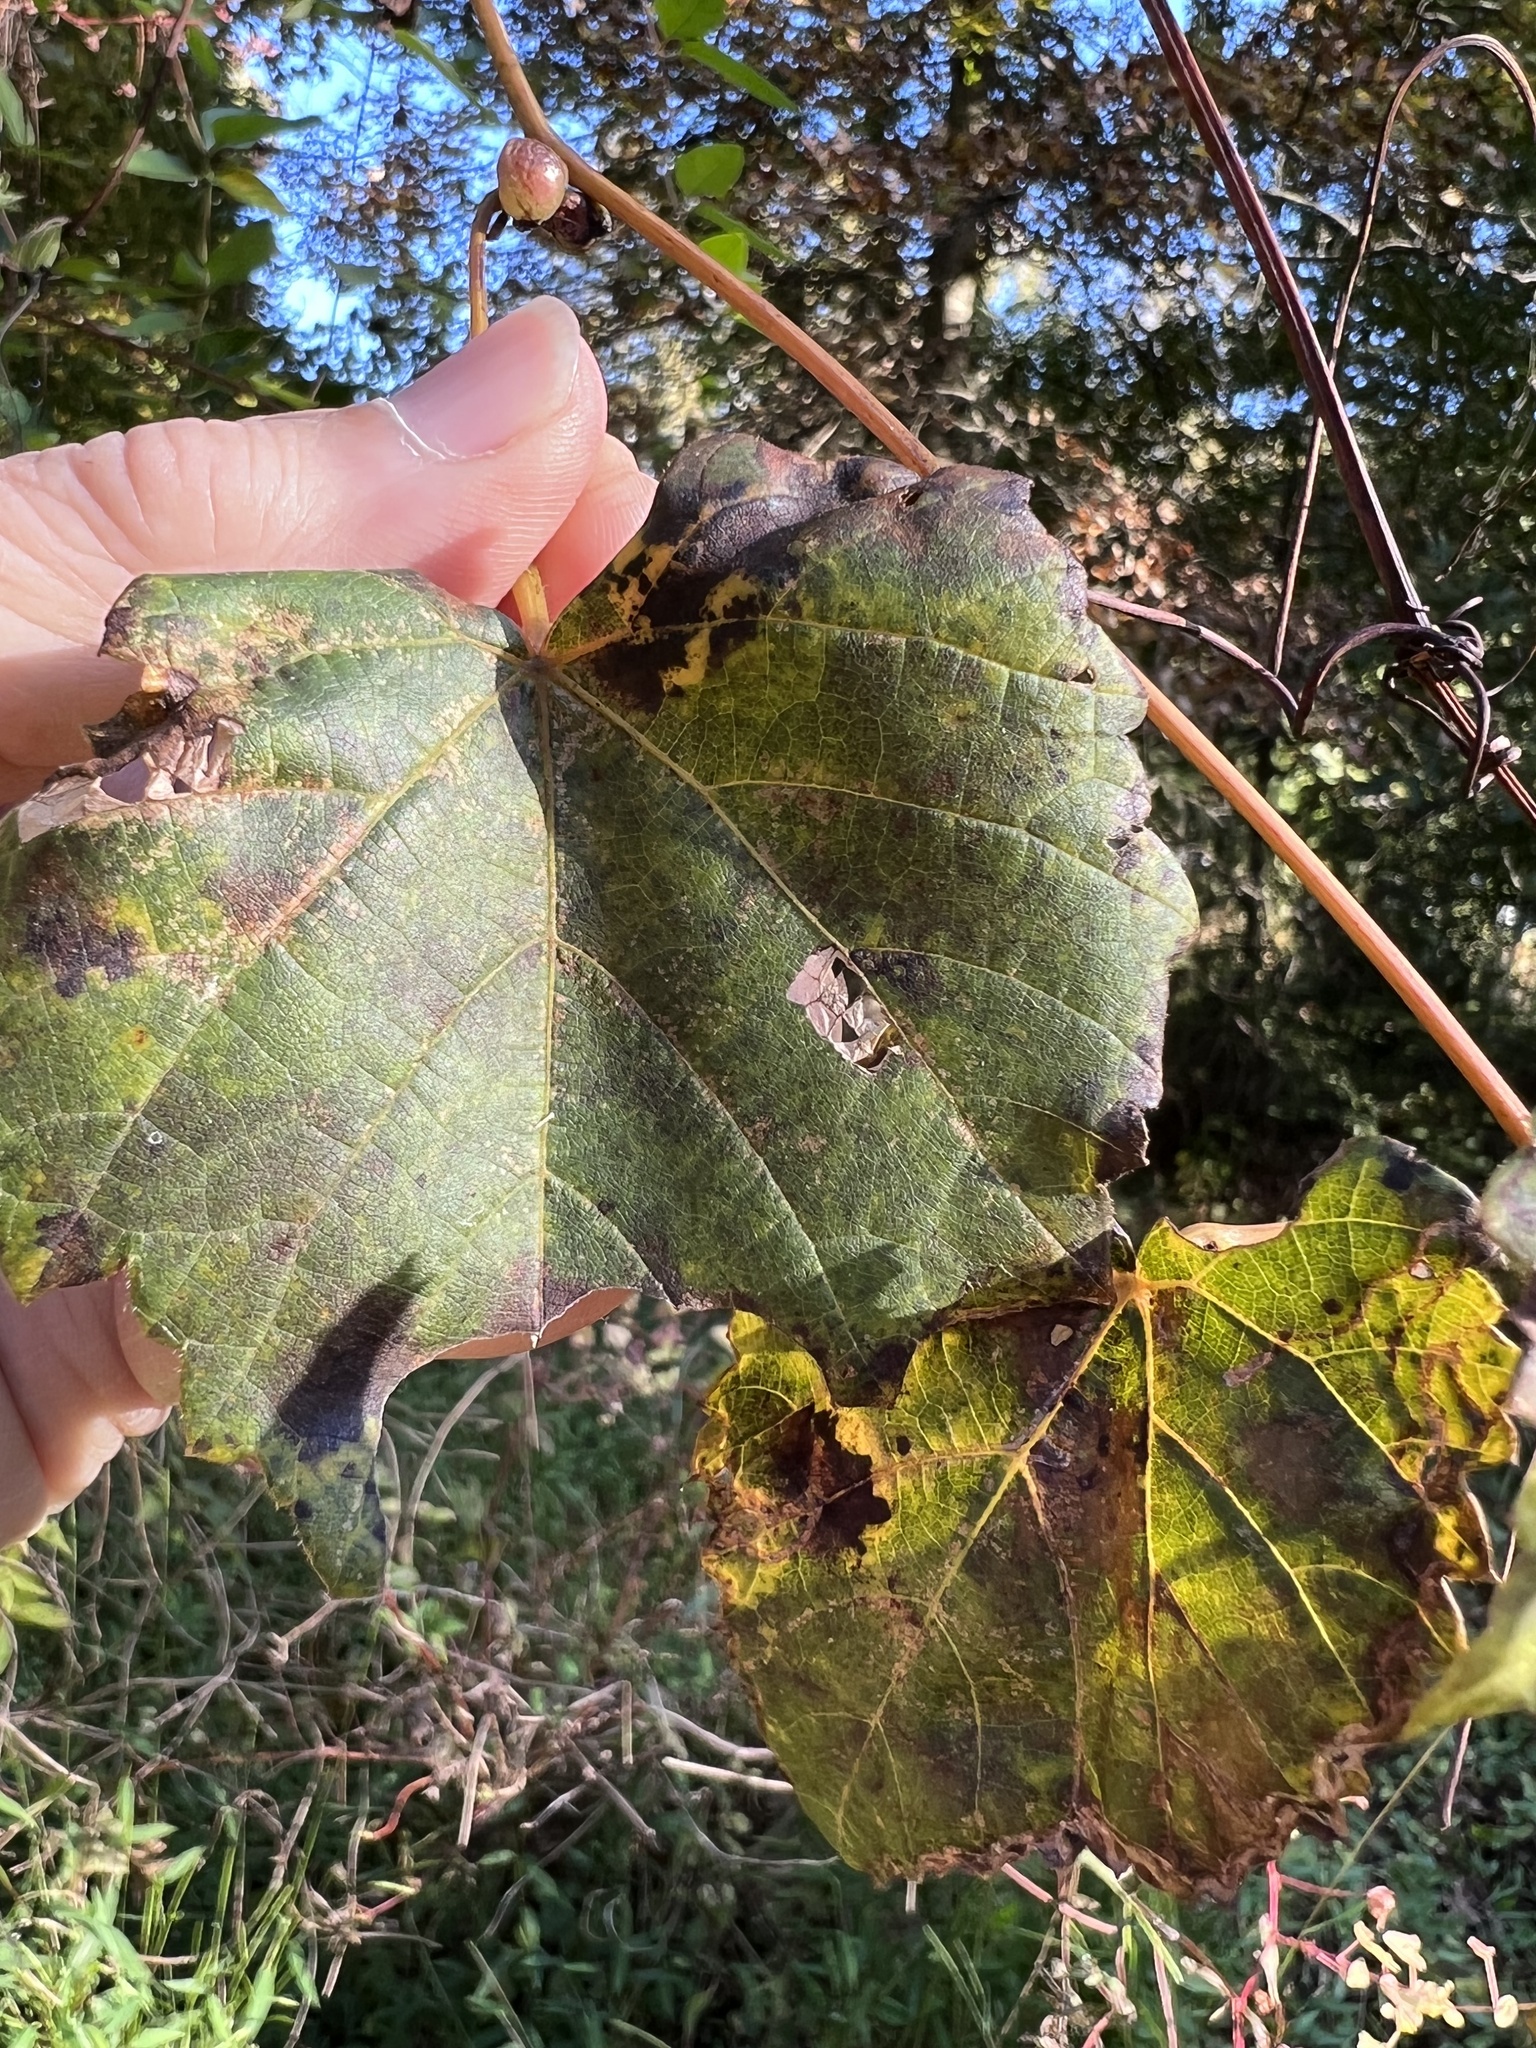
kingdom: Animalia
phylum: Arthropoda
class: Insecta
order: Diptera
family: Cecidomyiidae
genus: Ampelomyia
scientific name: Ampelomyia vitiscoryloides
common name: Grape filbert gall
